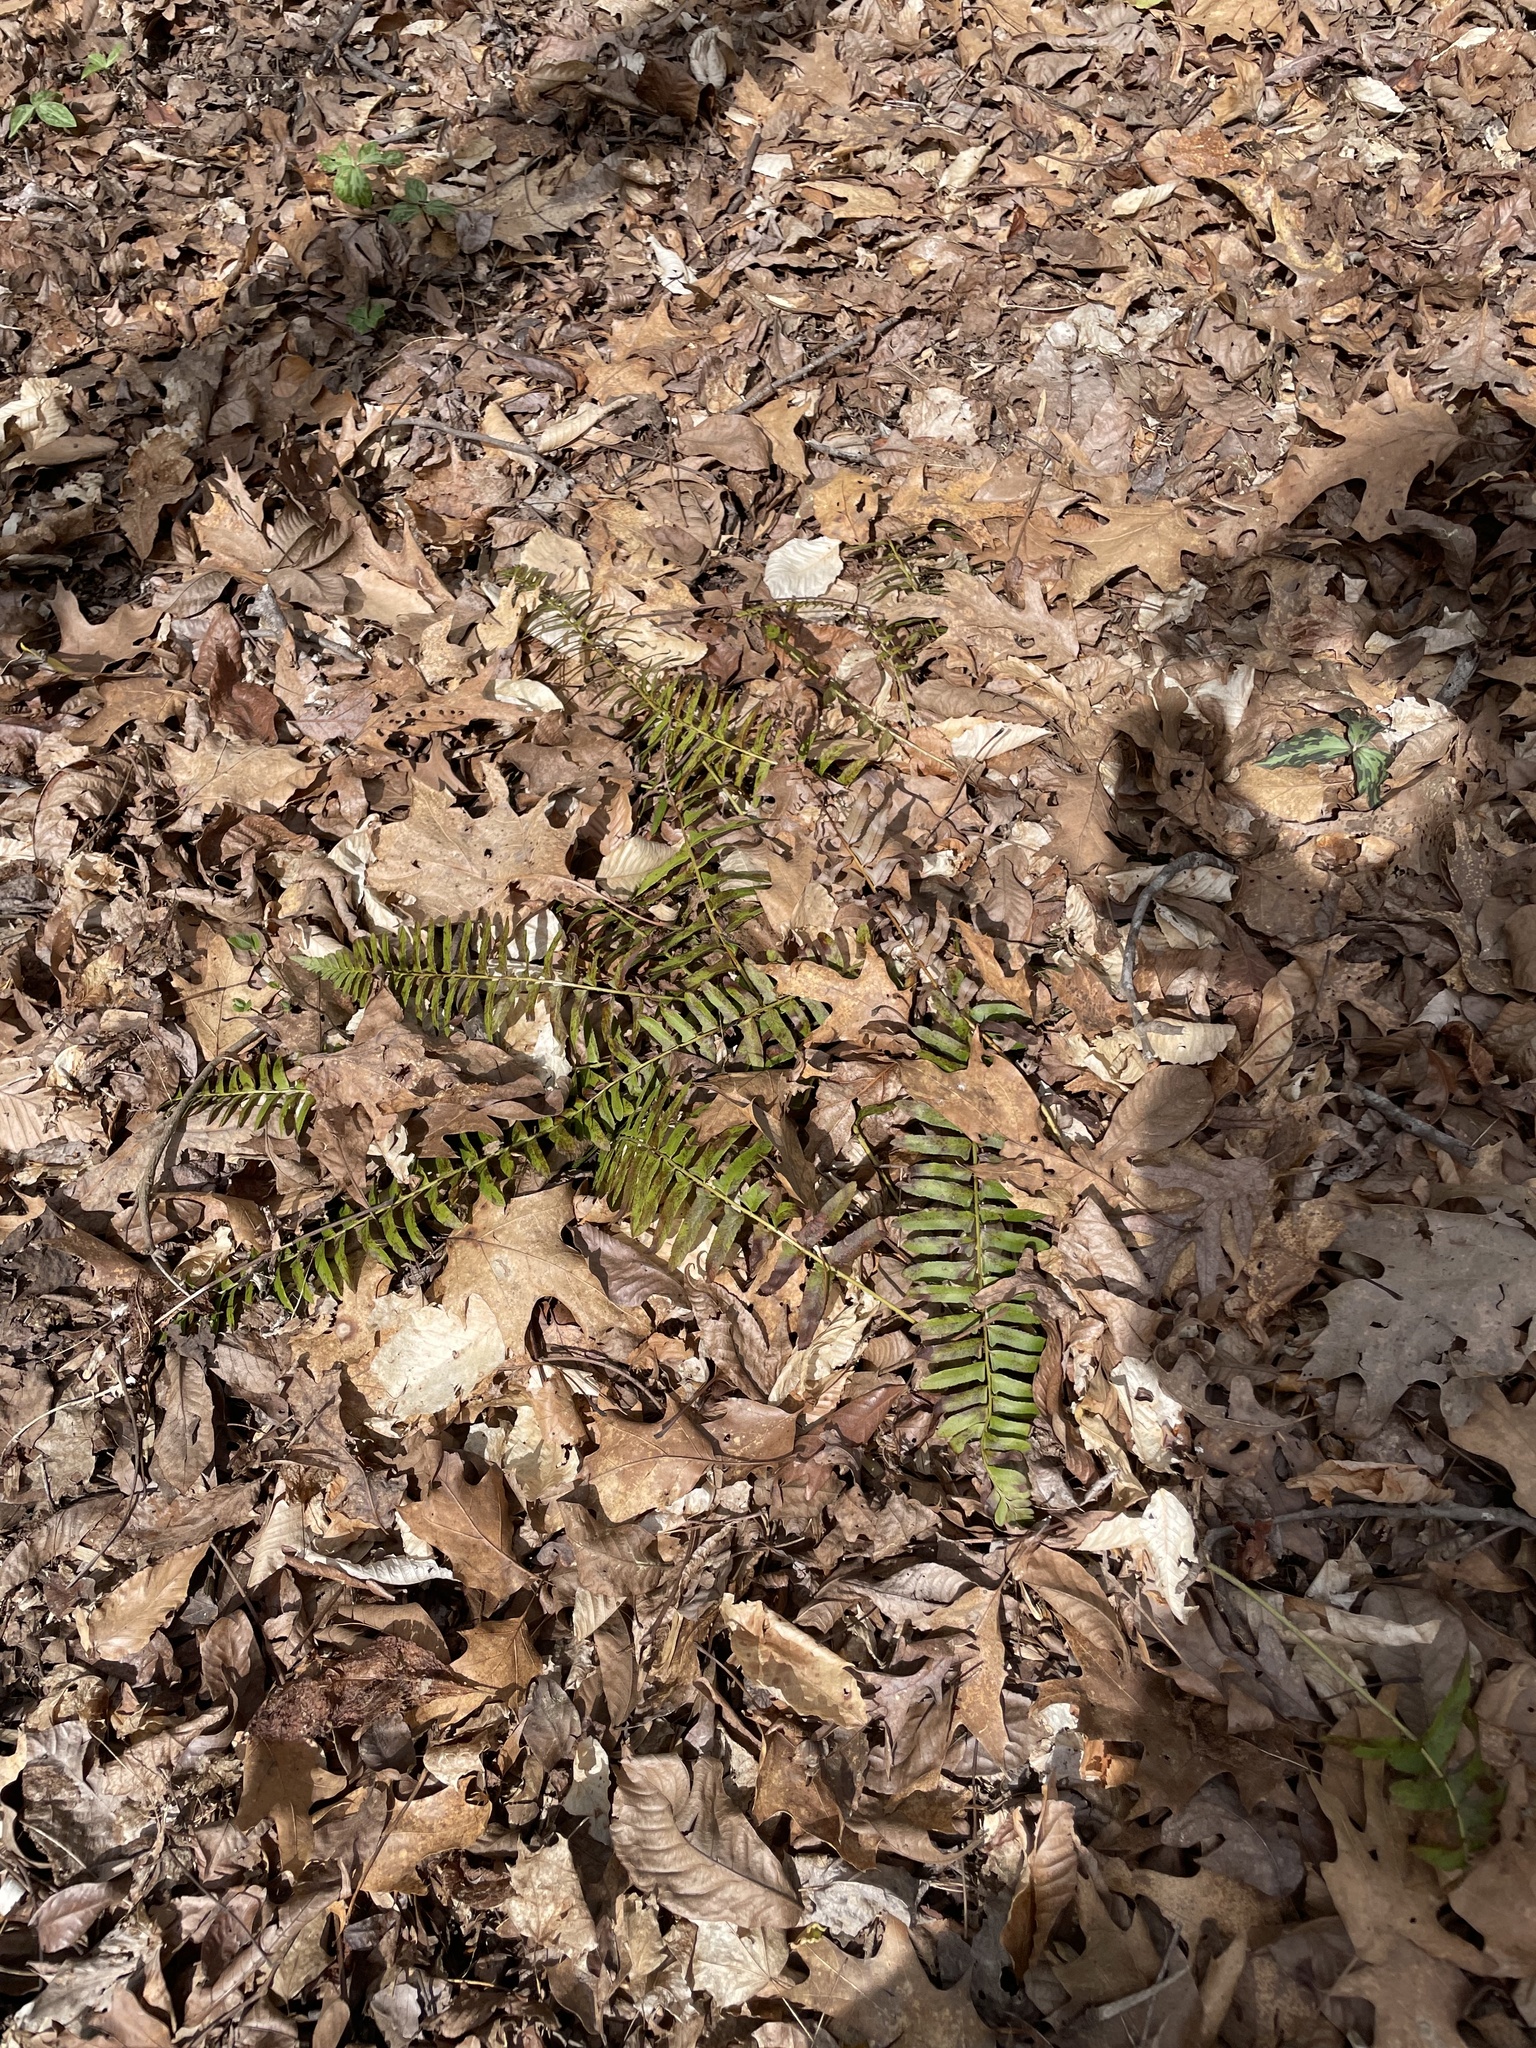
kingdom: Plantae
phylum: Tracheophyta
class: Polypodiopsida
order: Polypodiales
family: Dryopteridaceae
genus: Polystichum
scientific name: Polystichum acrostichoides
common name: Christmas fern
